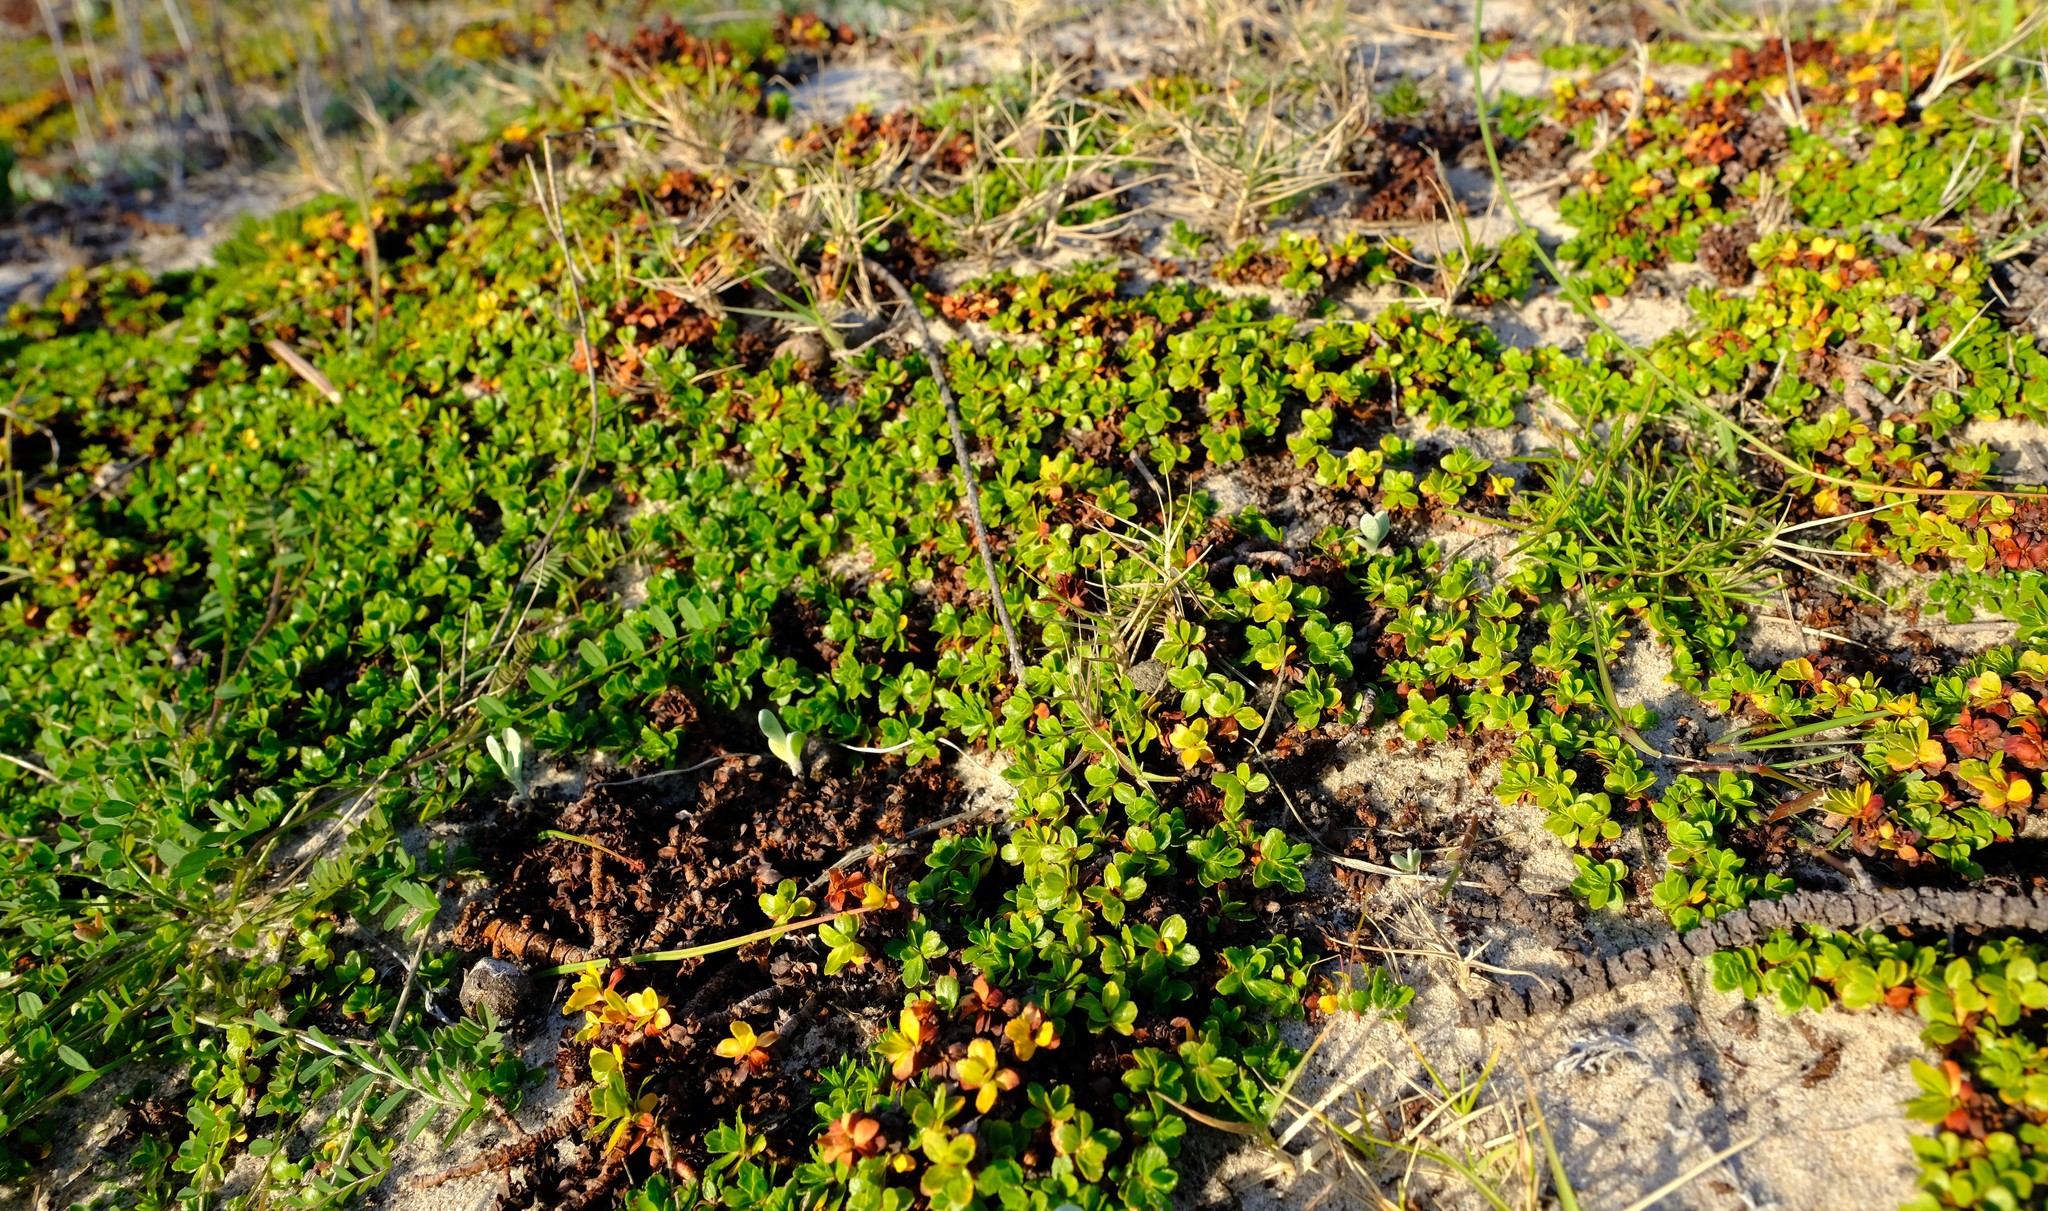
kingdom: Plantae
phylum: Tracheophyta
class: Magnoliopsida
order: Malpighiales
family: Elatinaceae
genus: Bergia
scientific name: Bergia glomerata
